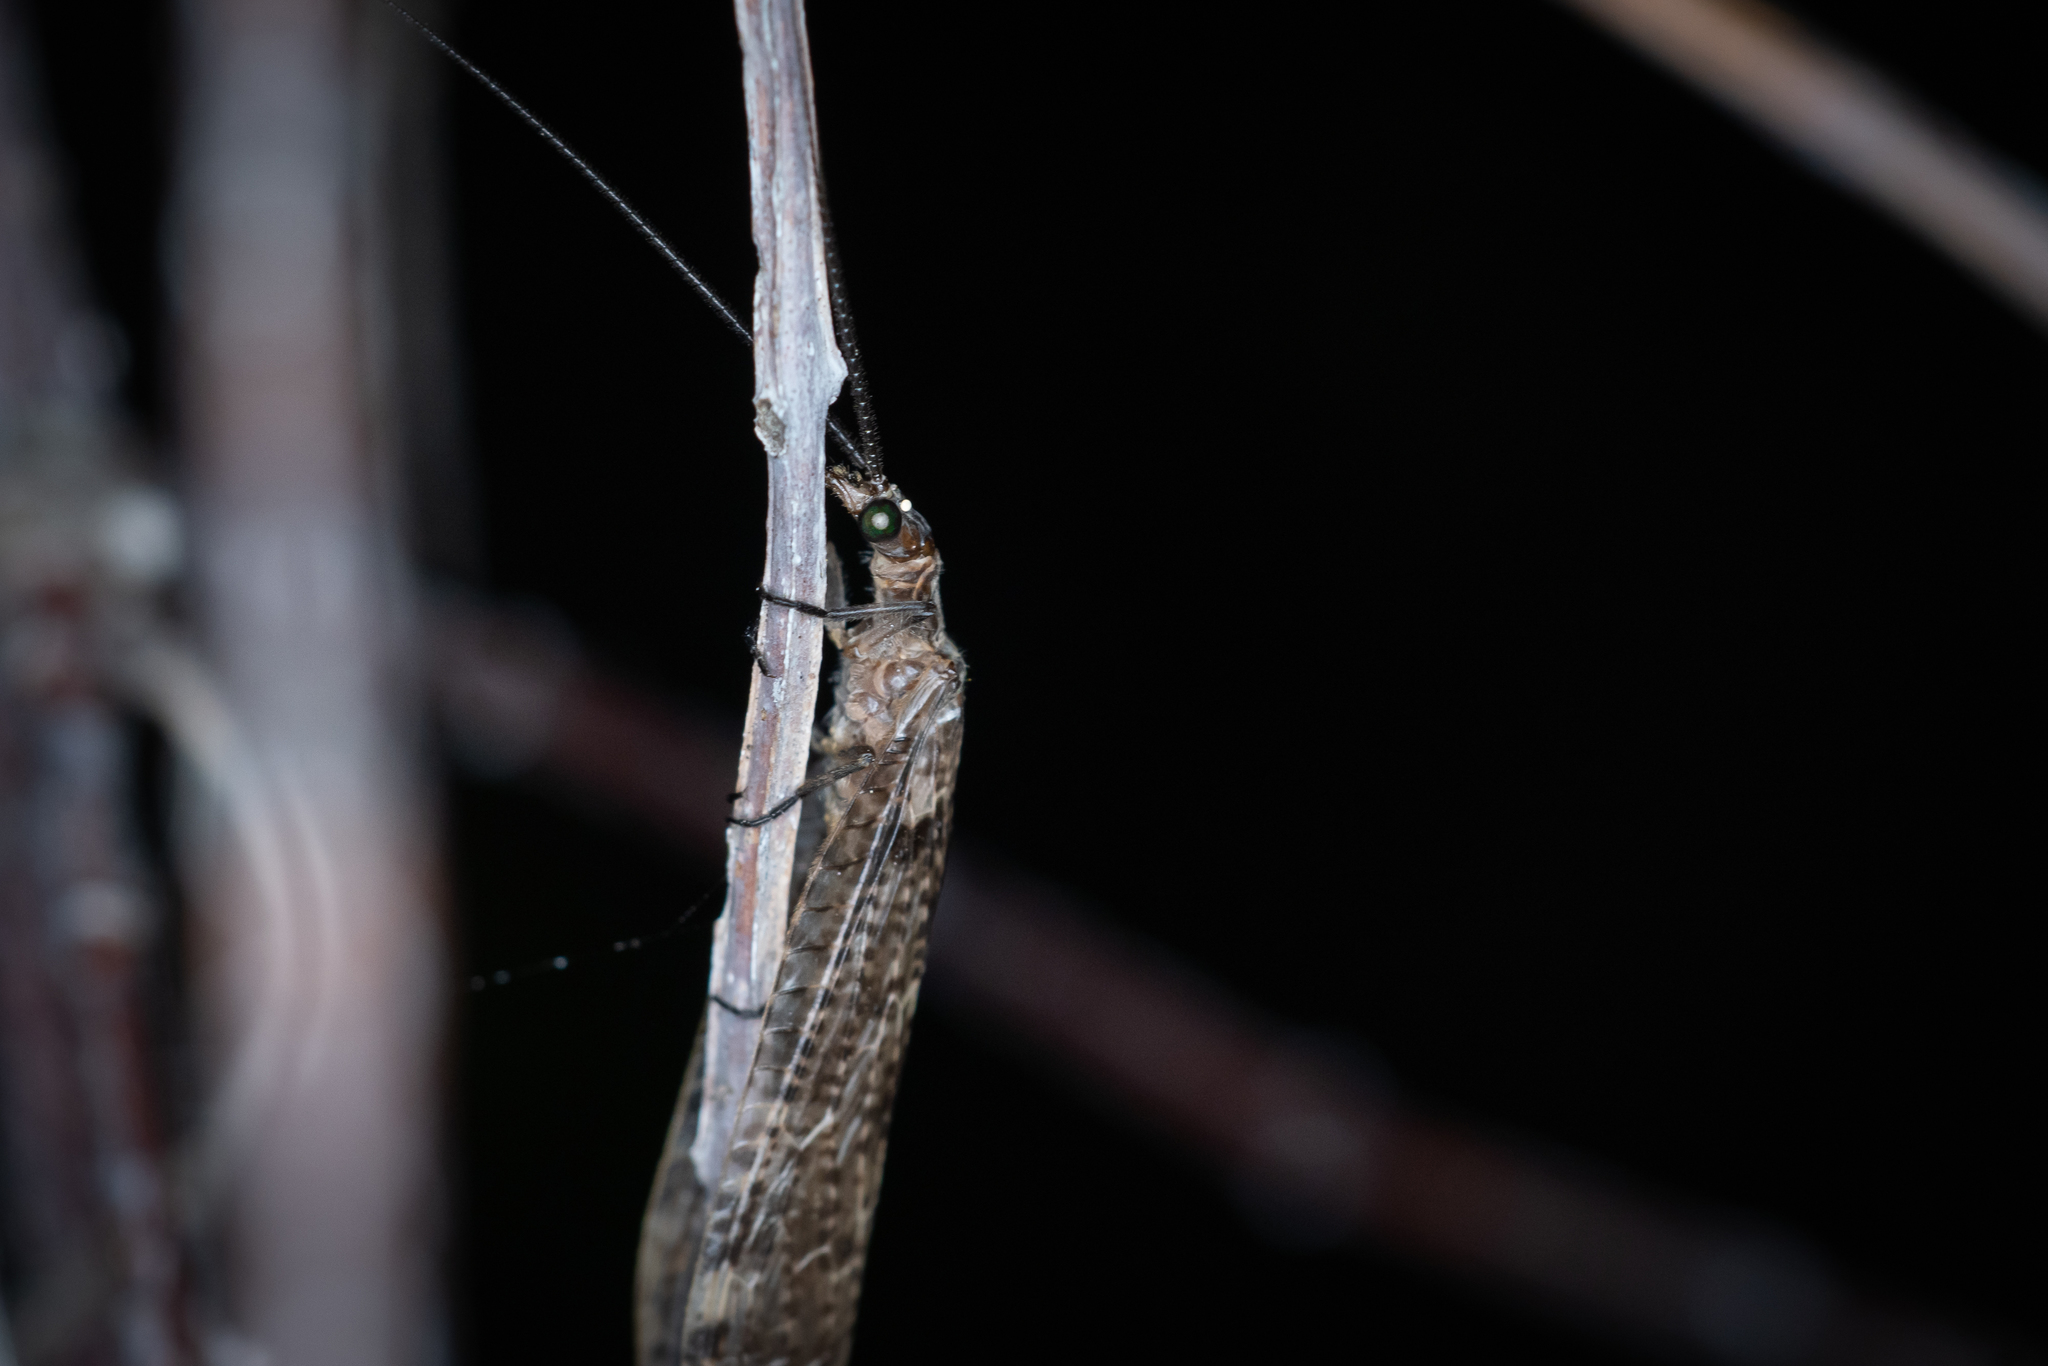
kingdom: Animalia
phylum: Arthropoda
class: Insecta
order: Megaloptera
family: Corydalidae
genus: Archichauliodes
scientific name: Archichauliodes diversus
